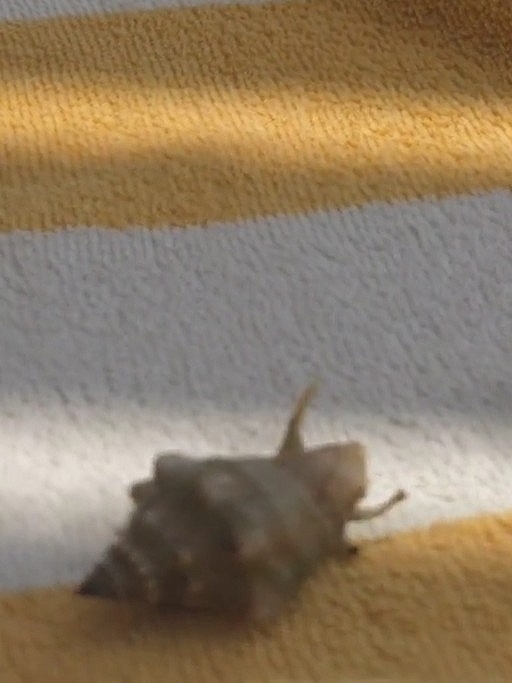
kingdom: Animalia
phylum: Mollusca
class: Gastropoda
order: Littorinimorpha
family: Strombidae
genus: Tricornis
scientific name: Tricornis tricornis
